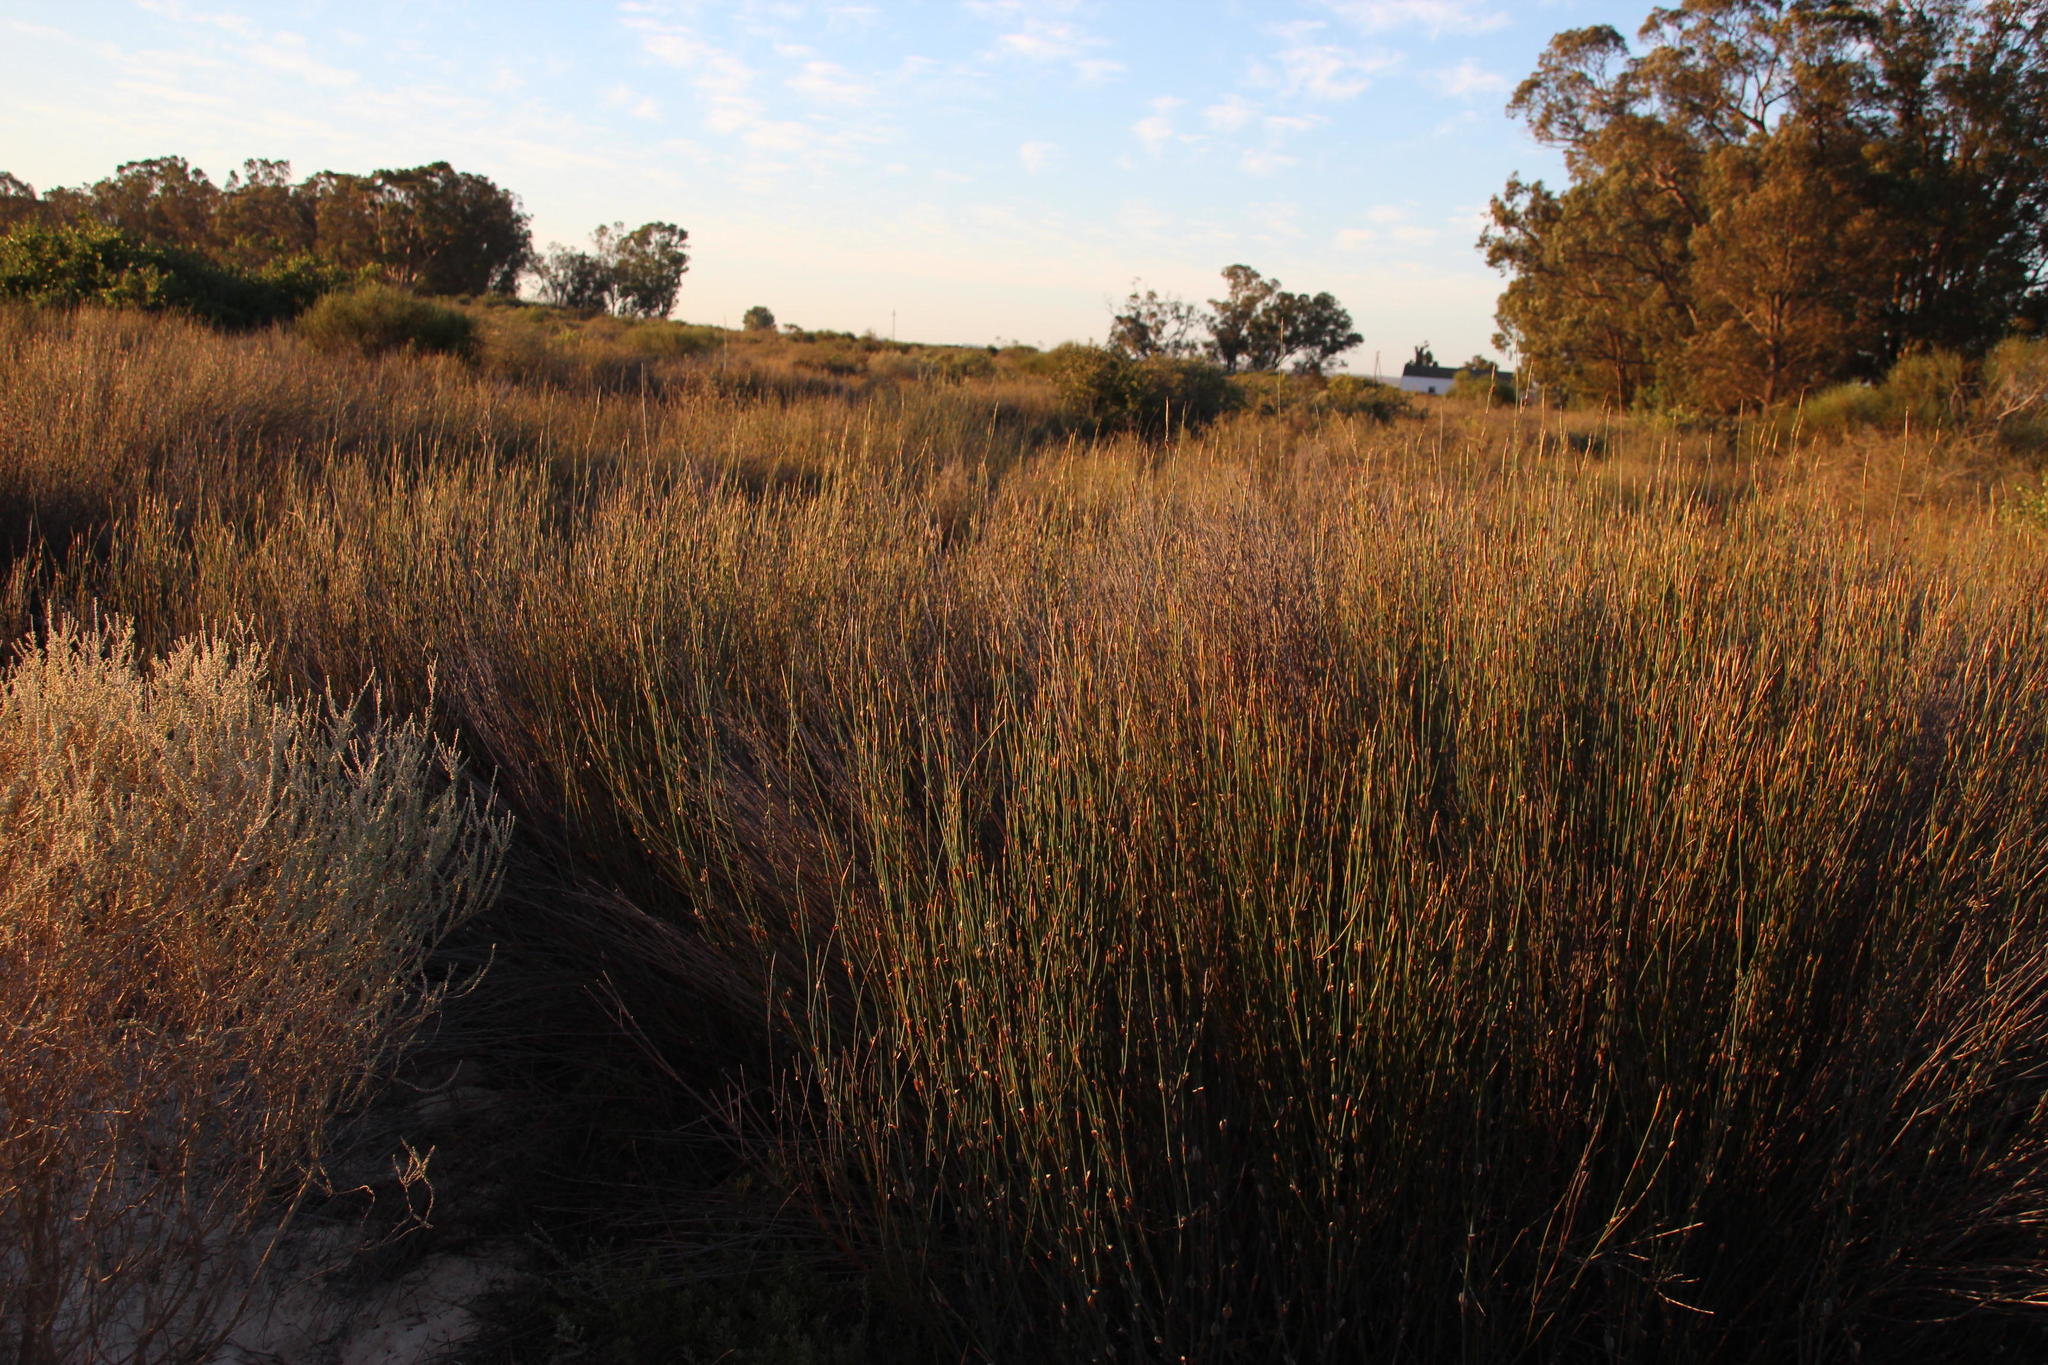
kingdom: Plantae
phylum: Tracheophyta
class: Liliopsida
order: Poales
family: Restionaceae
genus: Willdenowia
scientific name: Willdenowia incurvata
